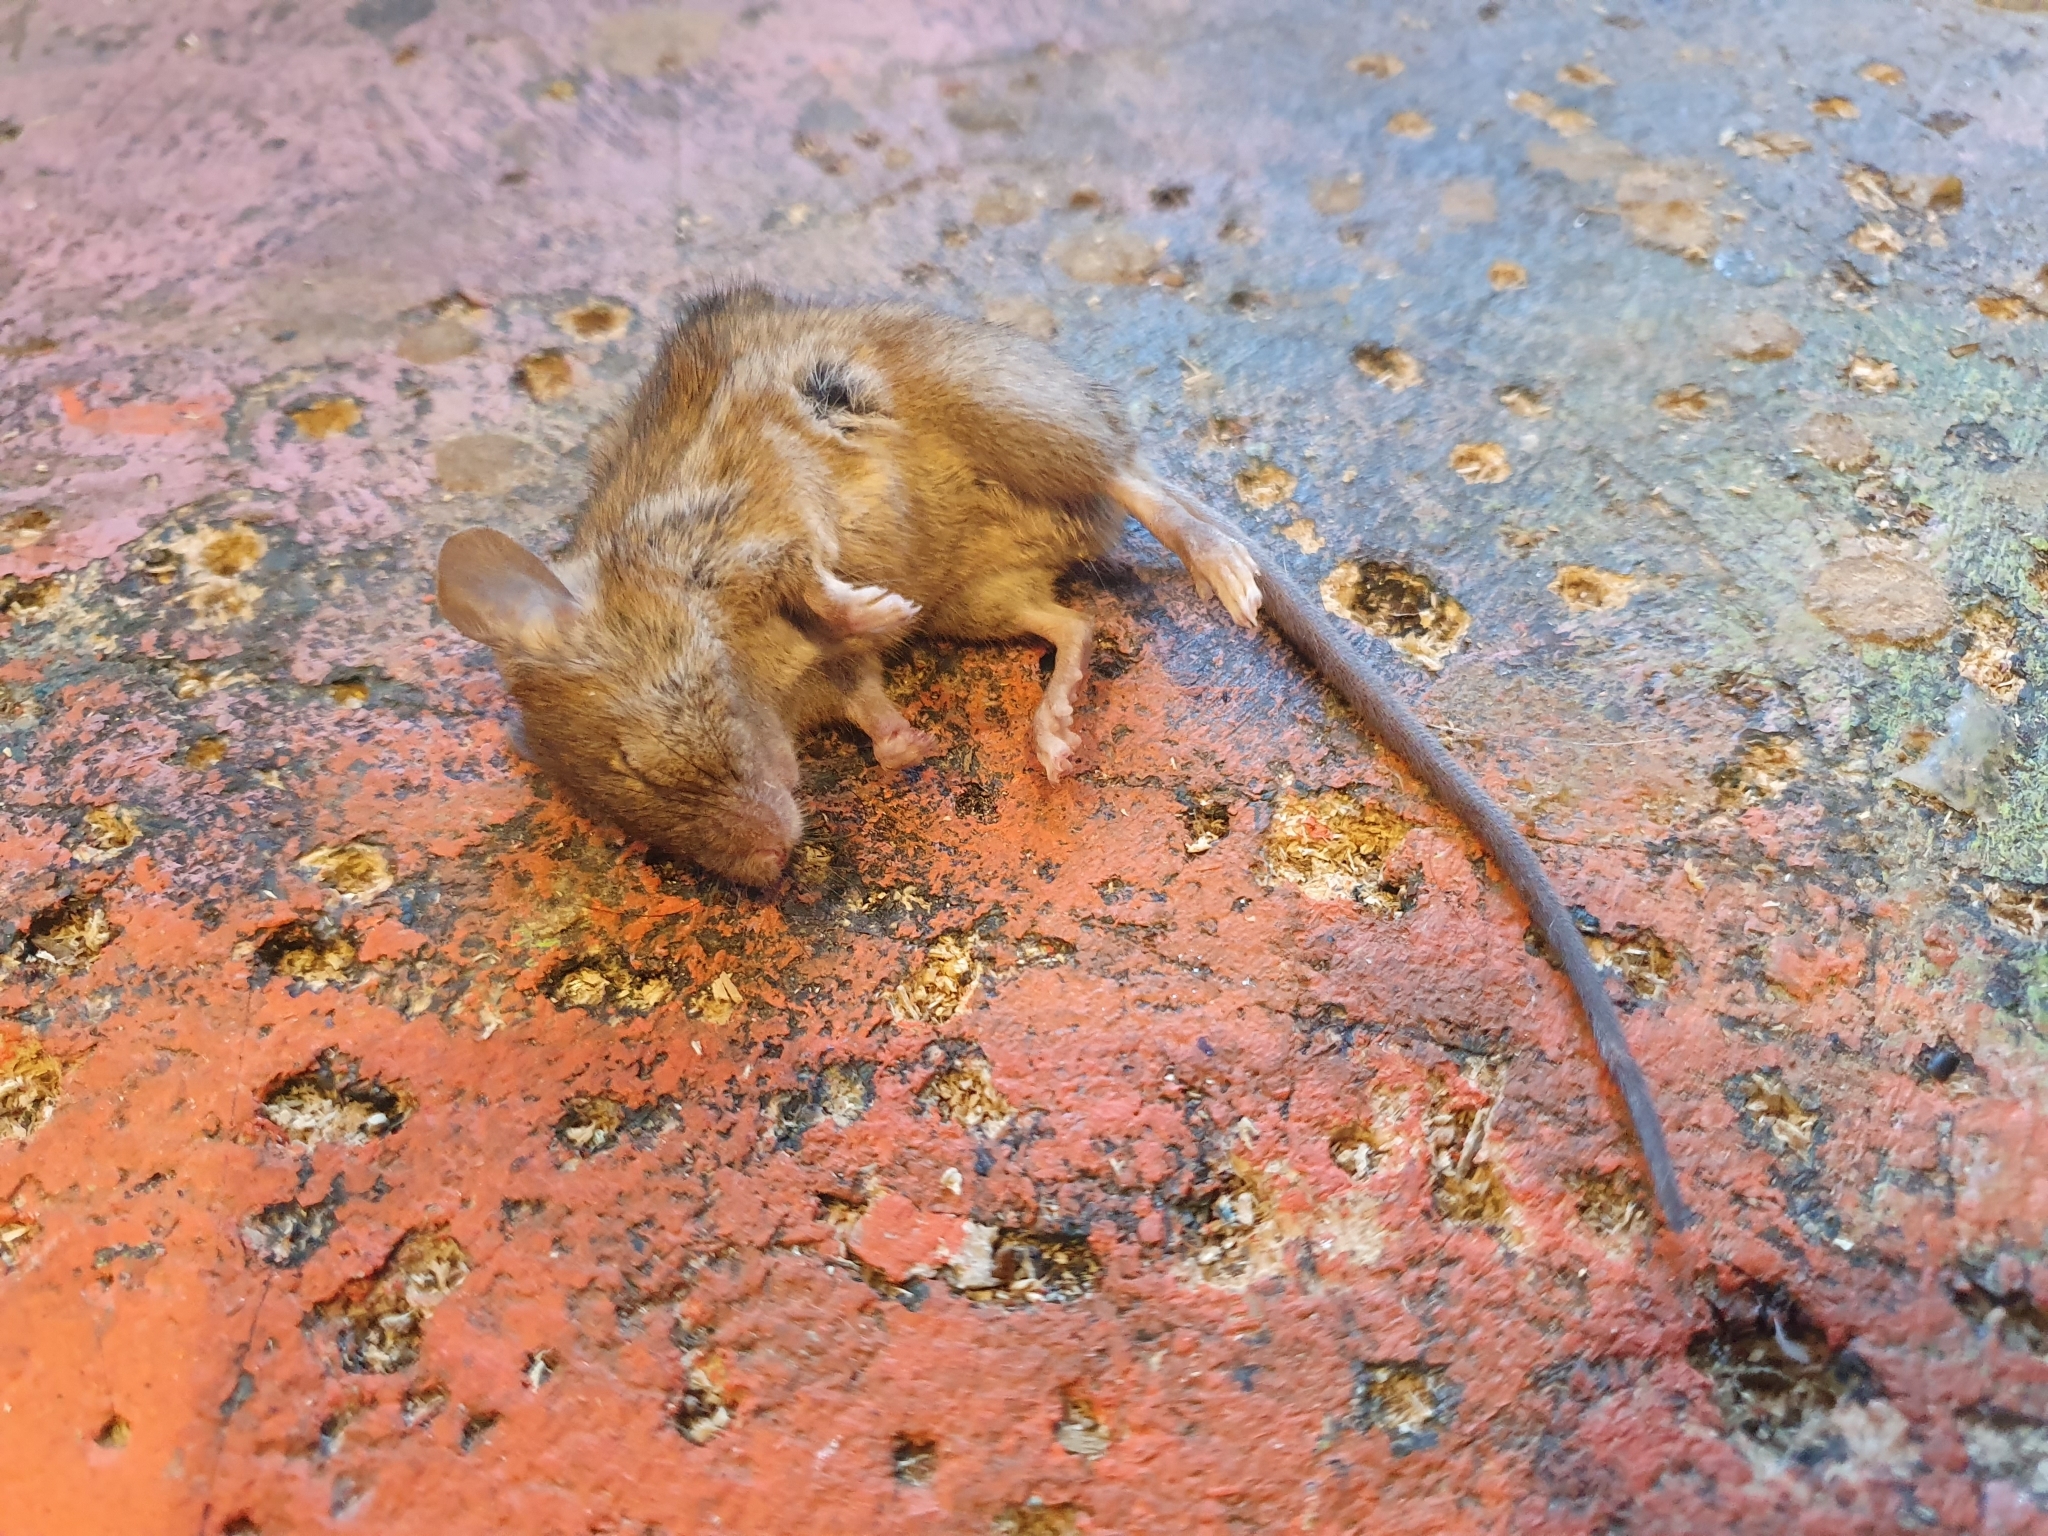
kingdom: Animalia
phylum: Chordata
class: Mammalia
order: Rodentia
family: Muridae
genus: Mus
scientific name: Mus musculus
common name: House mouse
